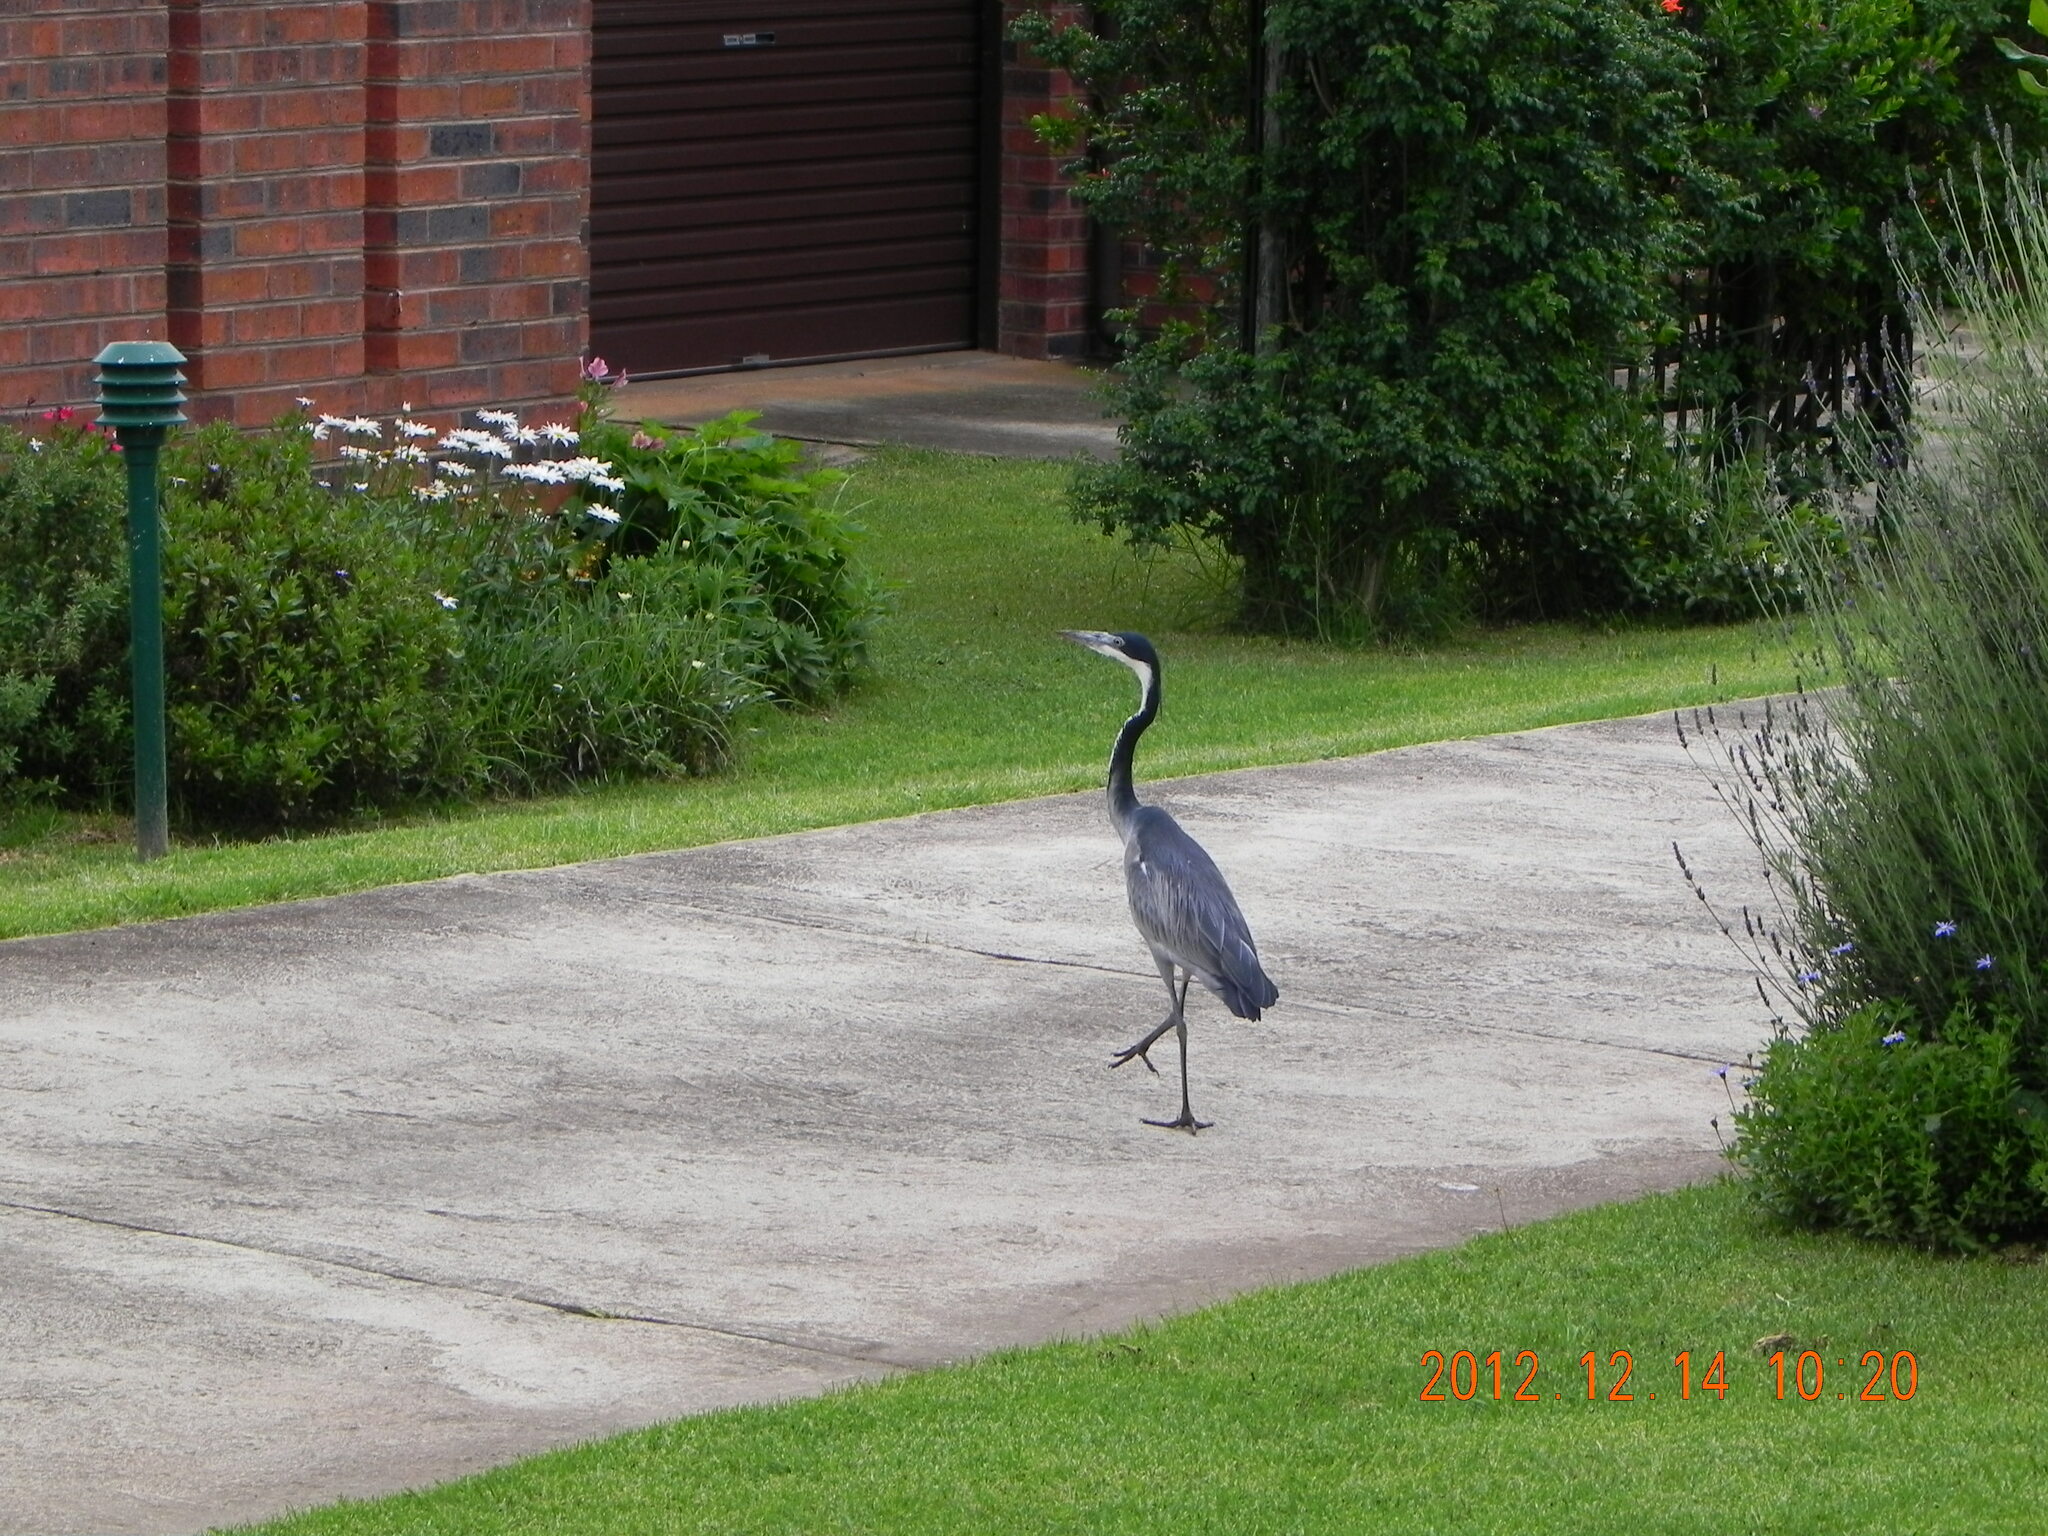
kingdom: Animalia
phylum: Chordata
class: Aves
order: Pelecaniformes
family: Ardeidae
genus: Ardea
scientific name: Ardea melanocephala
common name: Black-headed heron
